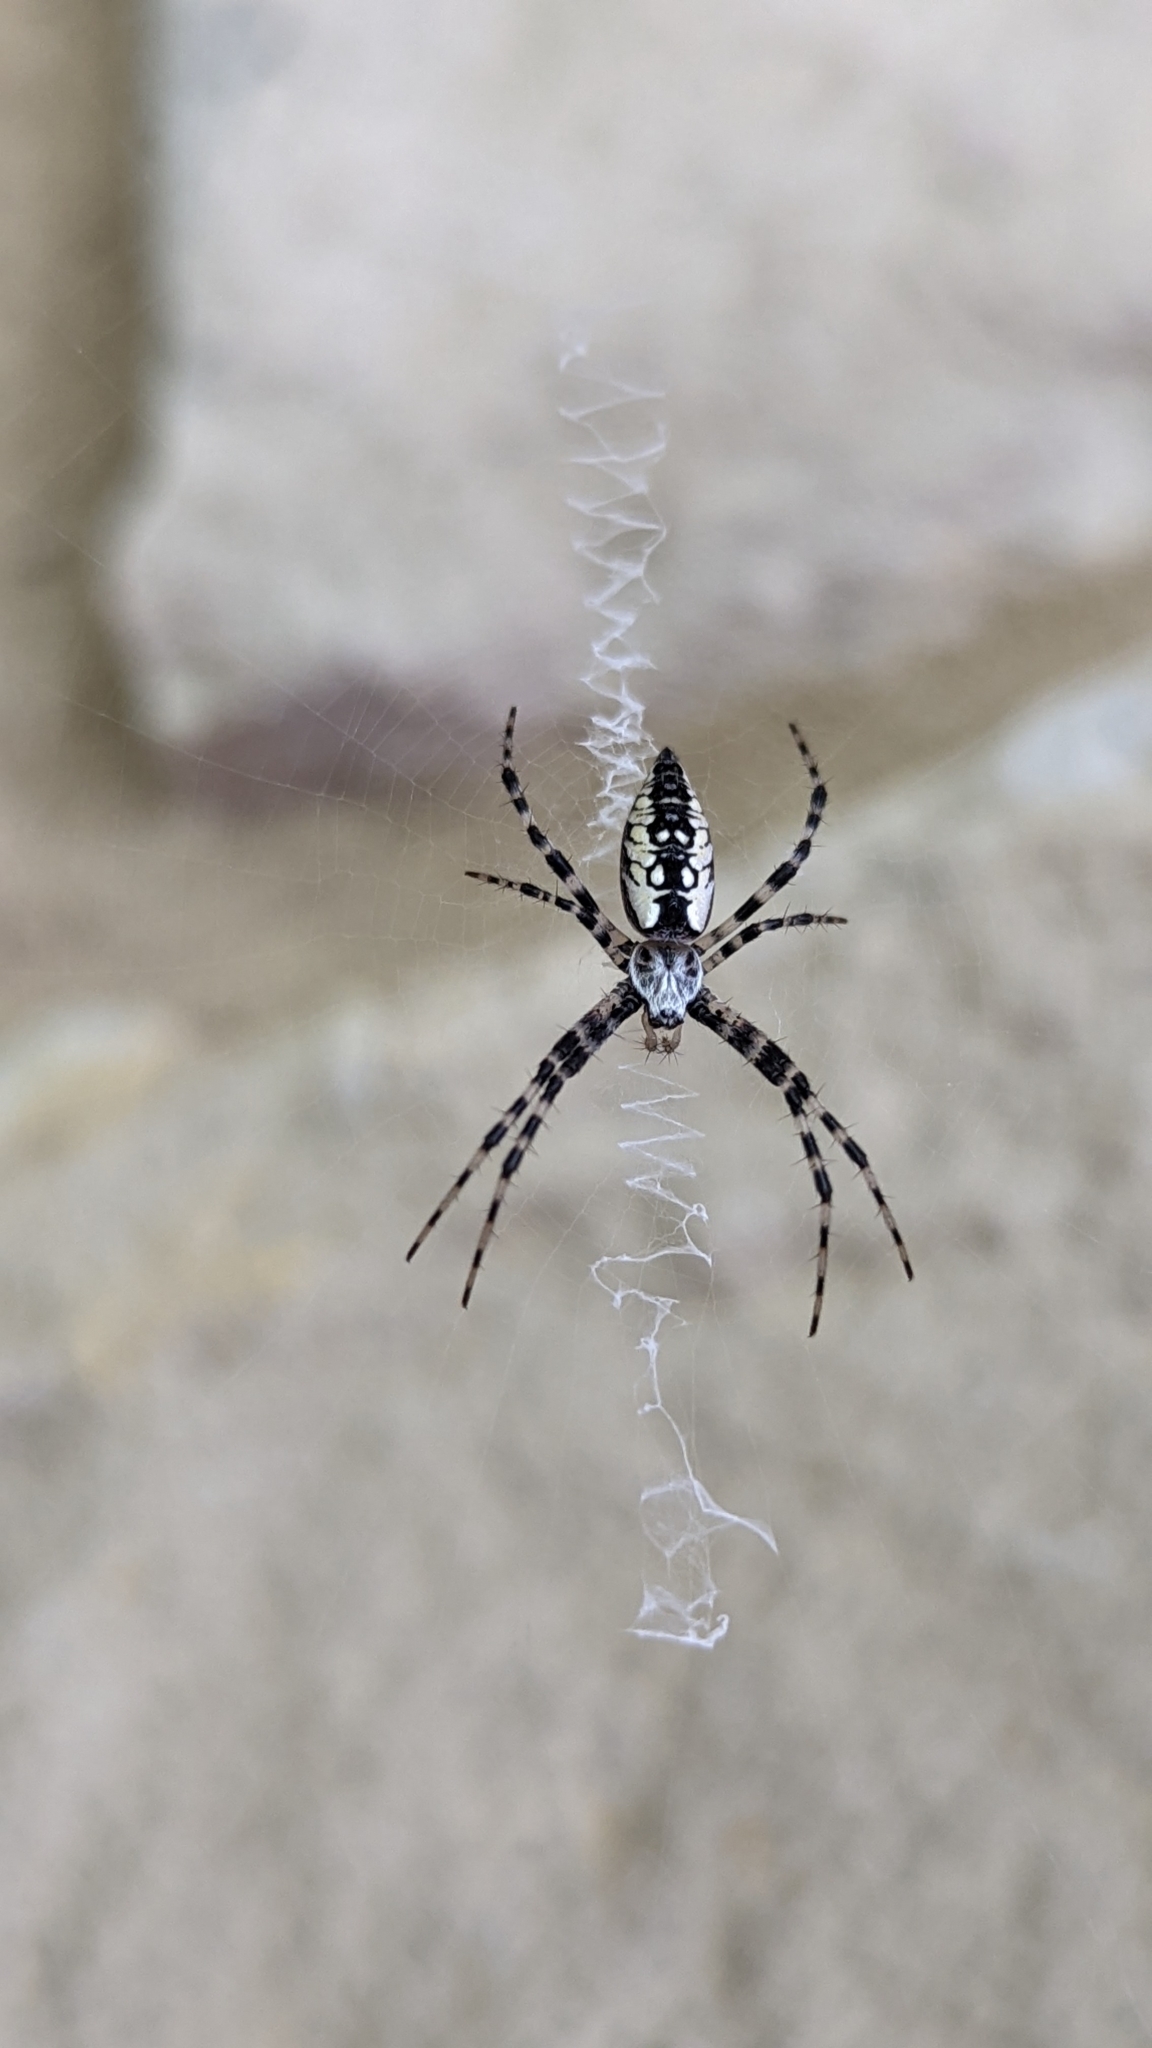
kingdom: Animalia
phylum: Arthropoda
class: Arachnida
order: Araneae
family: Araneidae
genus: Argiope
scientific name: Argiope aurantia
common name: Orb weavers
